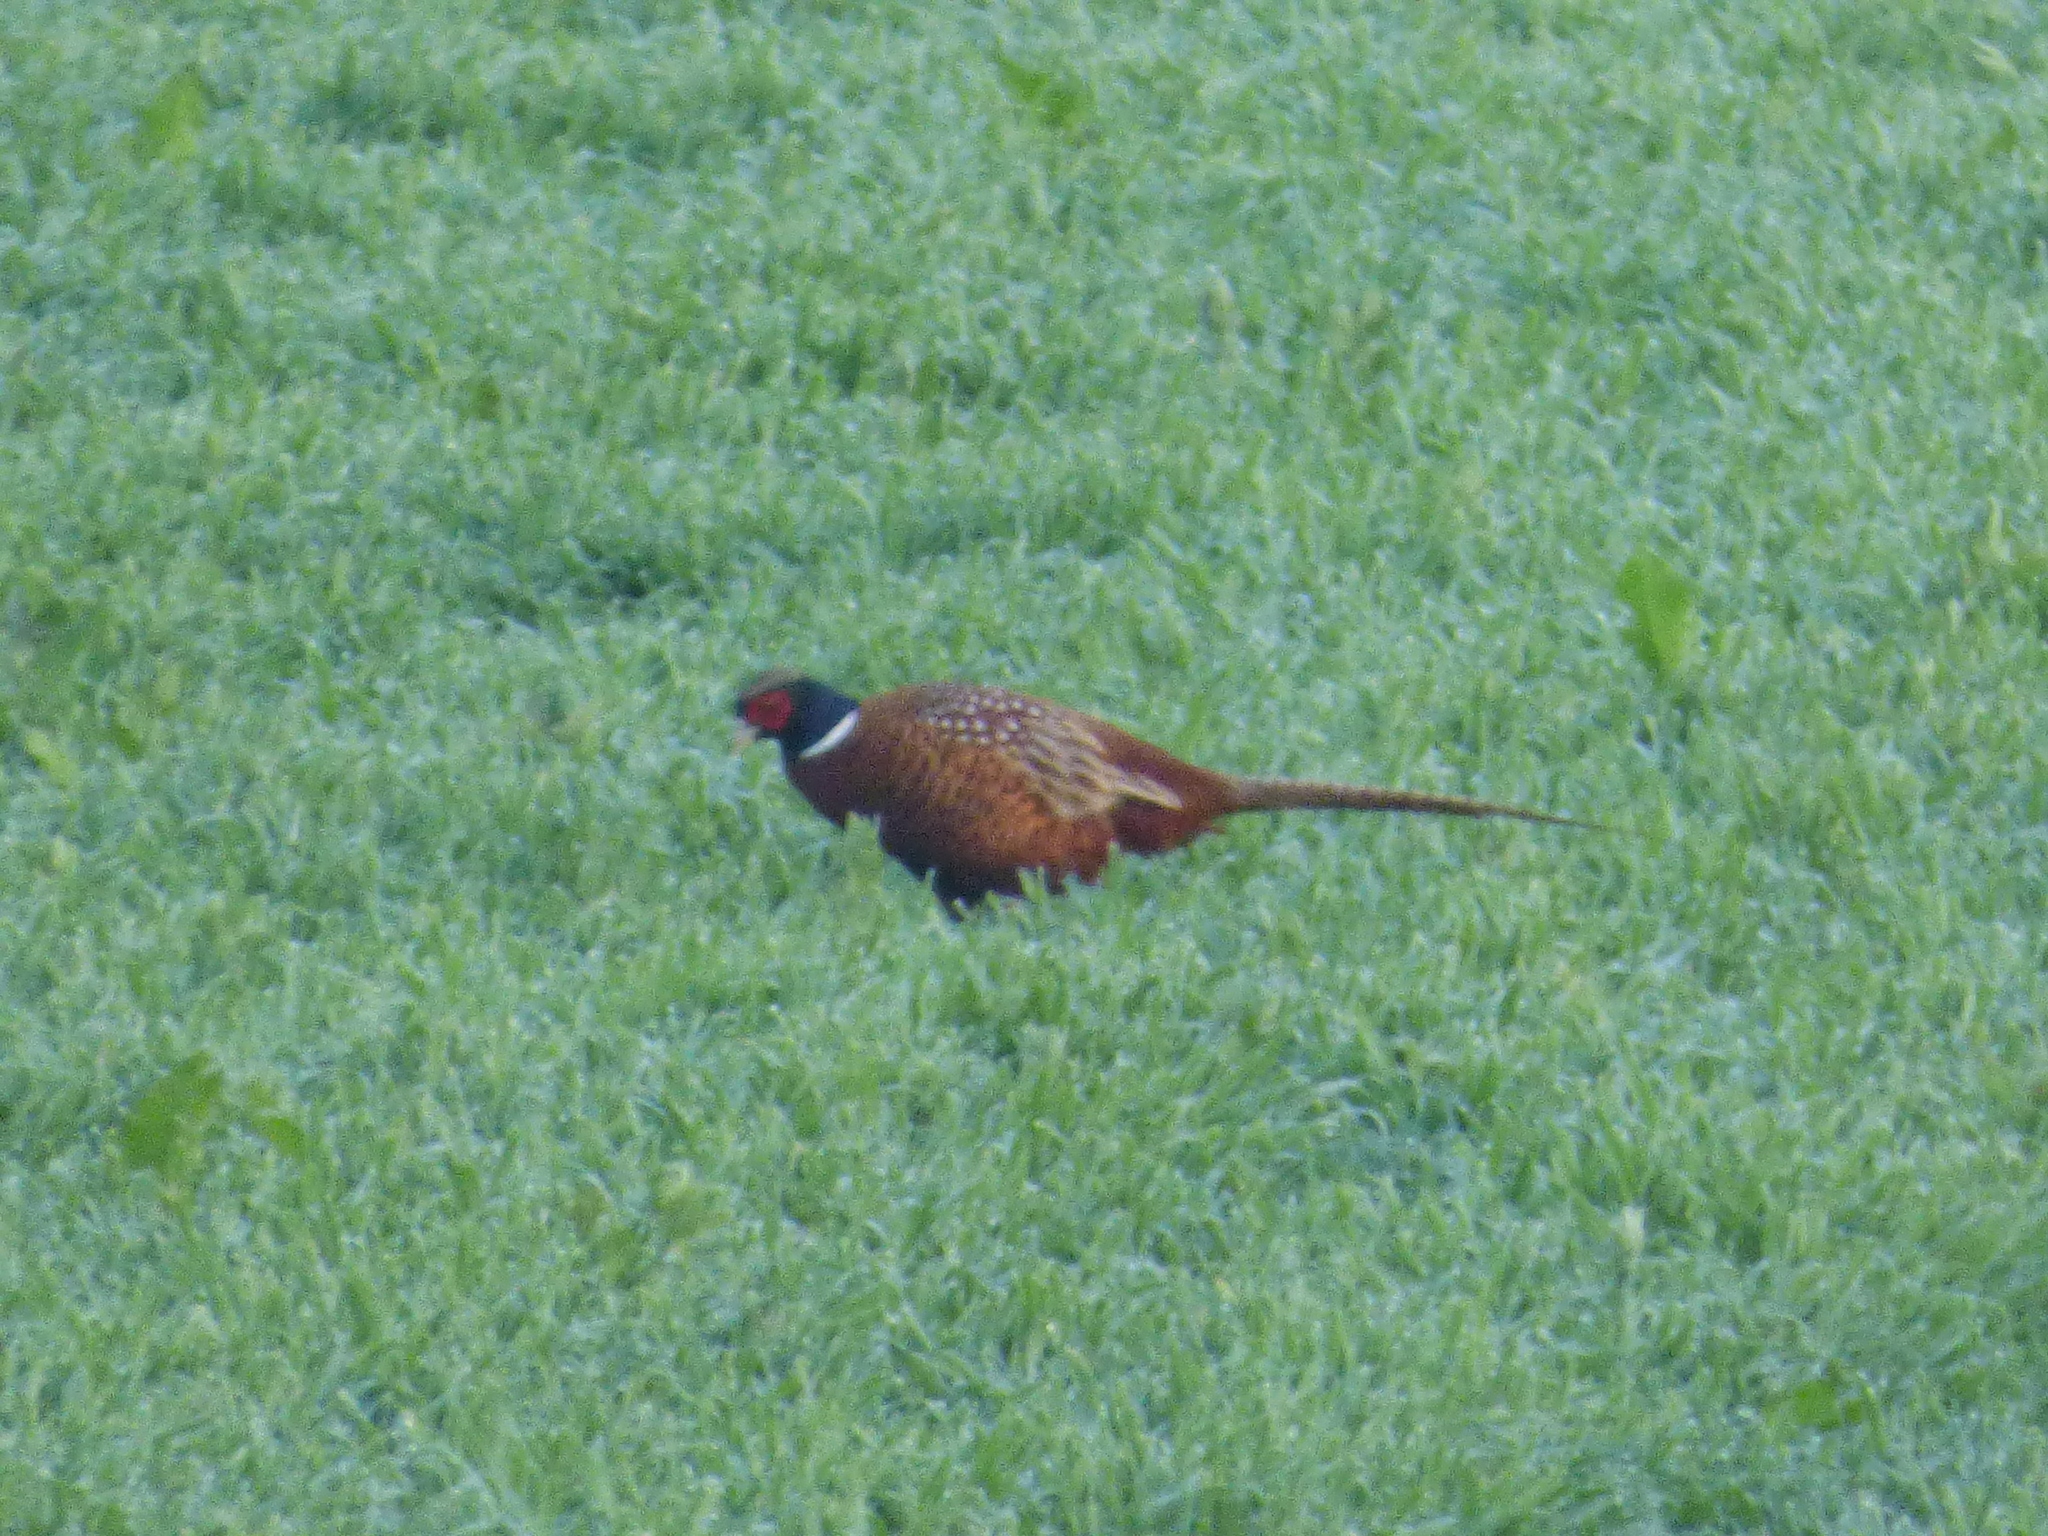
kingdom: Animalia
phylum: Chordata
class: Aves
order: Galliformes
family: Phasianidae
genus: Phasianus
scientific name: Phasianus colchicus
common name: Common pheasant
